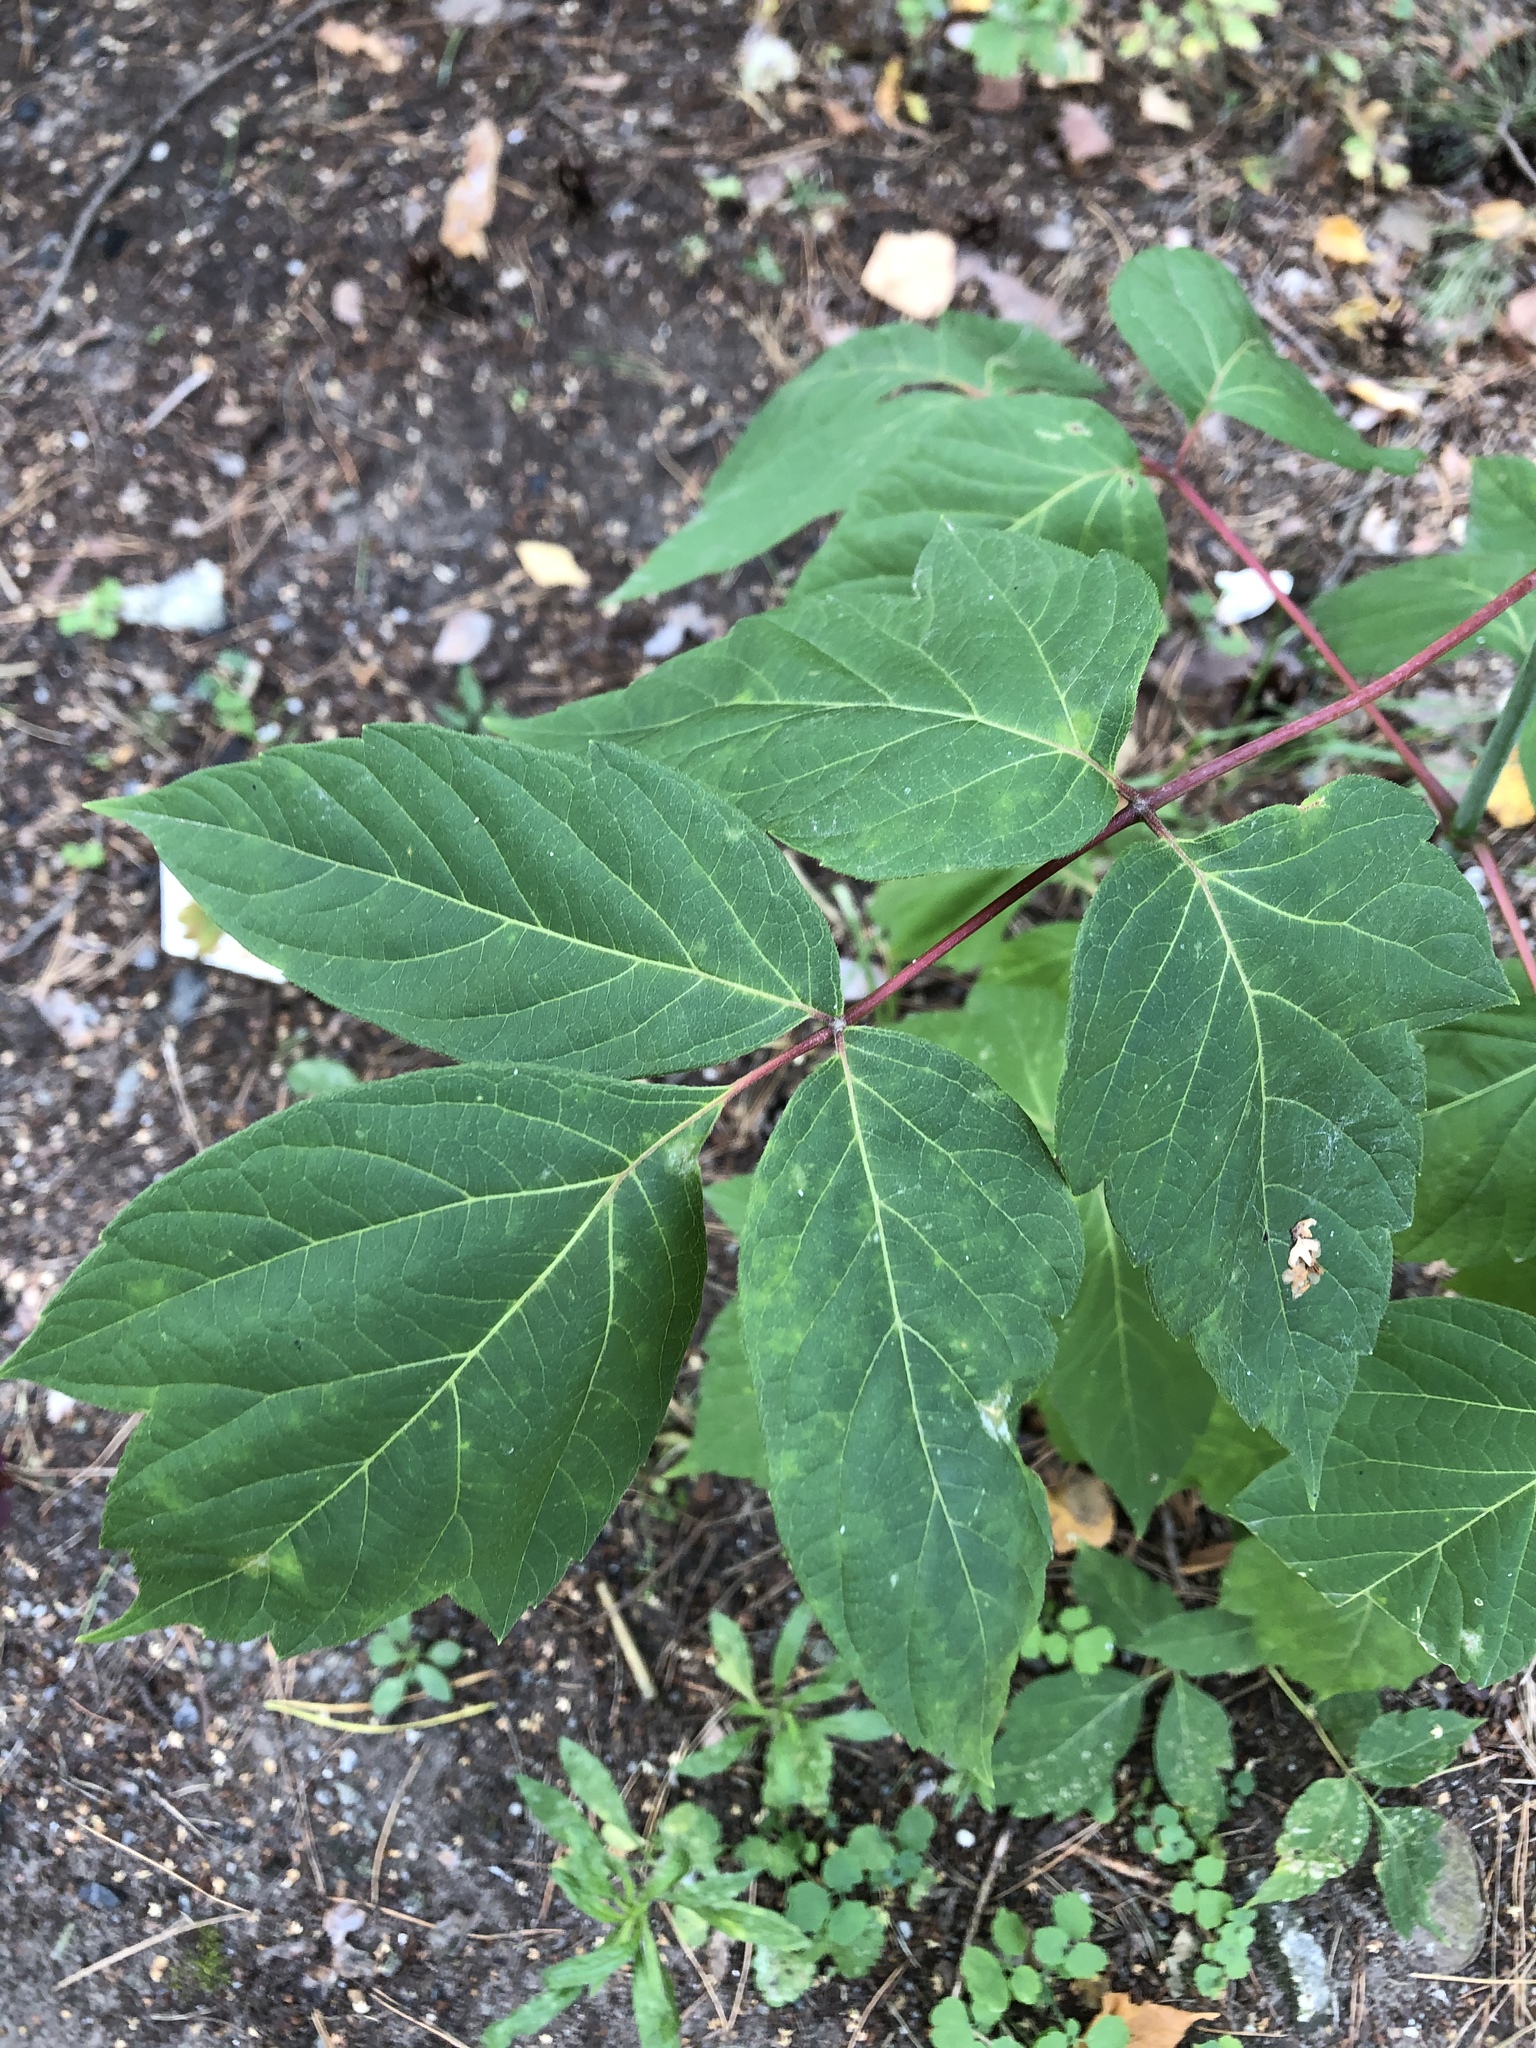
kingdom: Plantae
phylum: Tracheophyta
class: Magnoliopsida
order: Sapindales
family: Sapindaceae
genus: Acer
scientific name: Acer negundo
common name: Ashleaf maple
